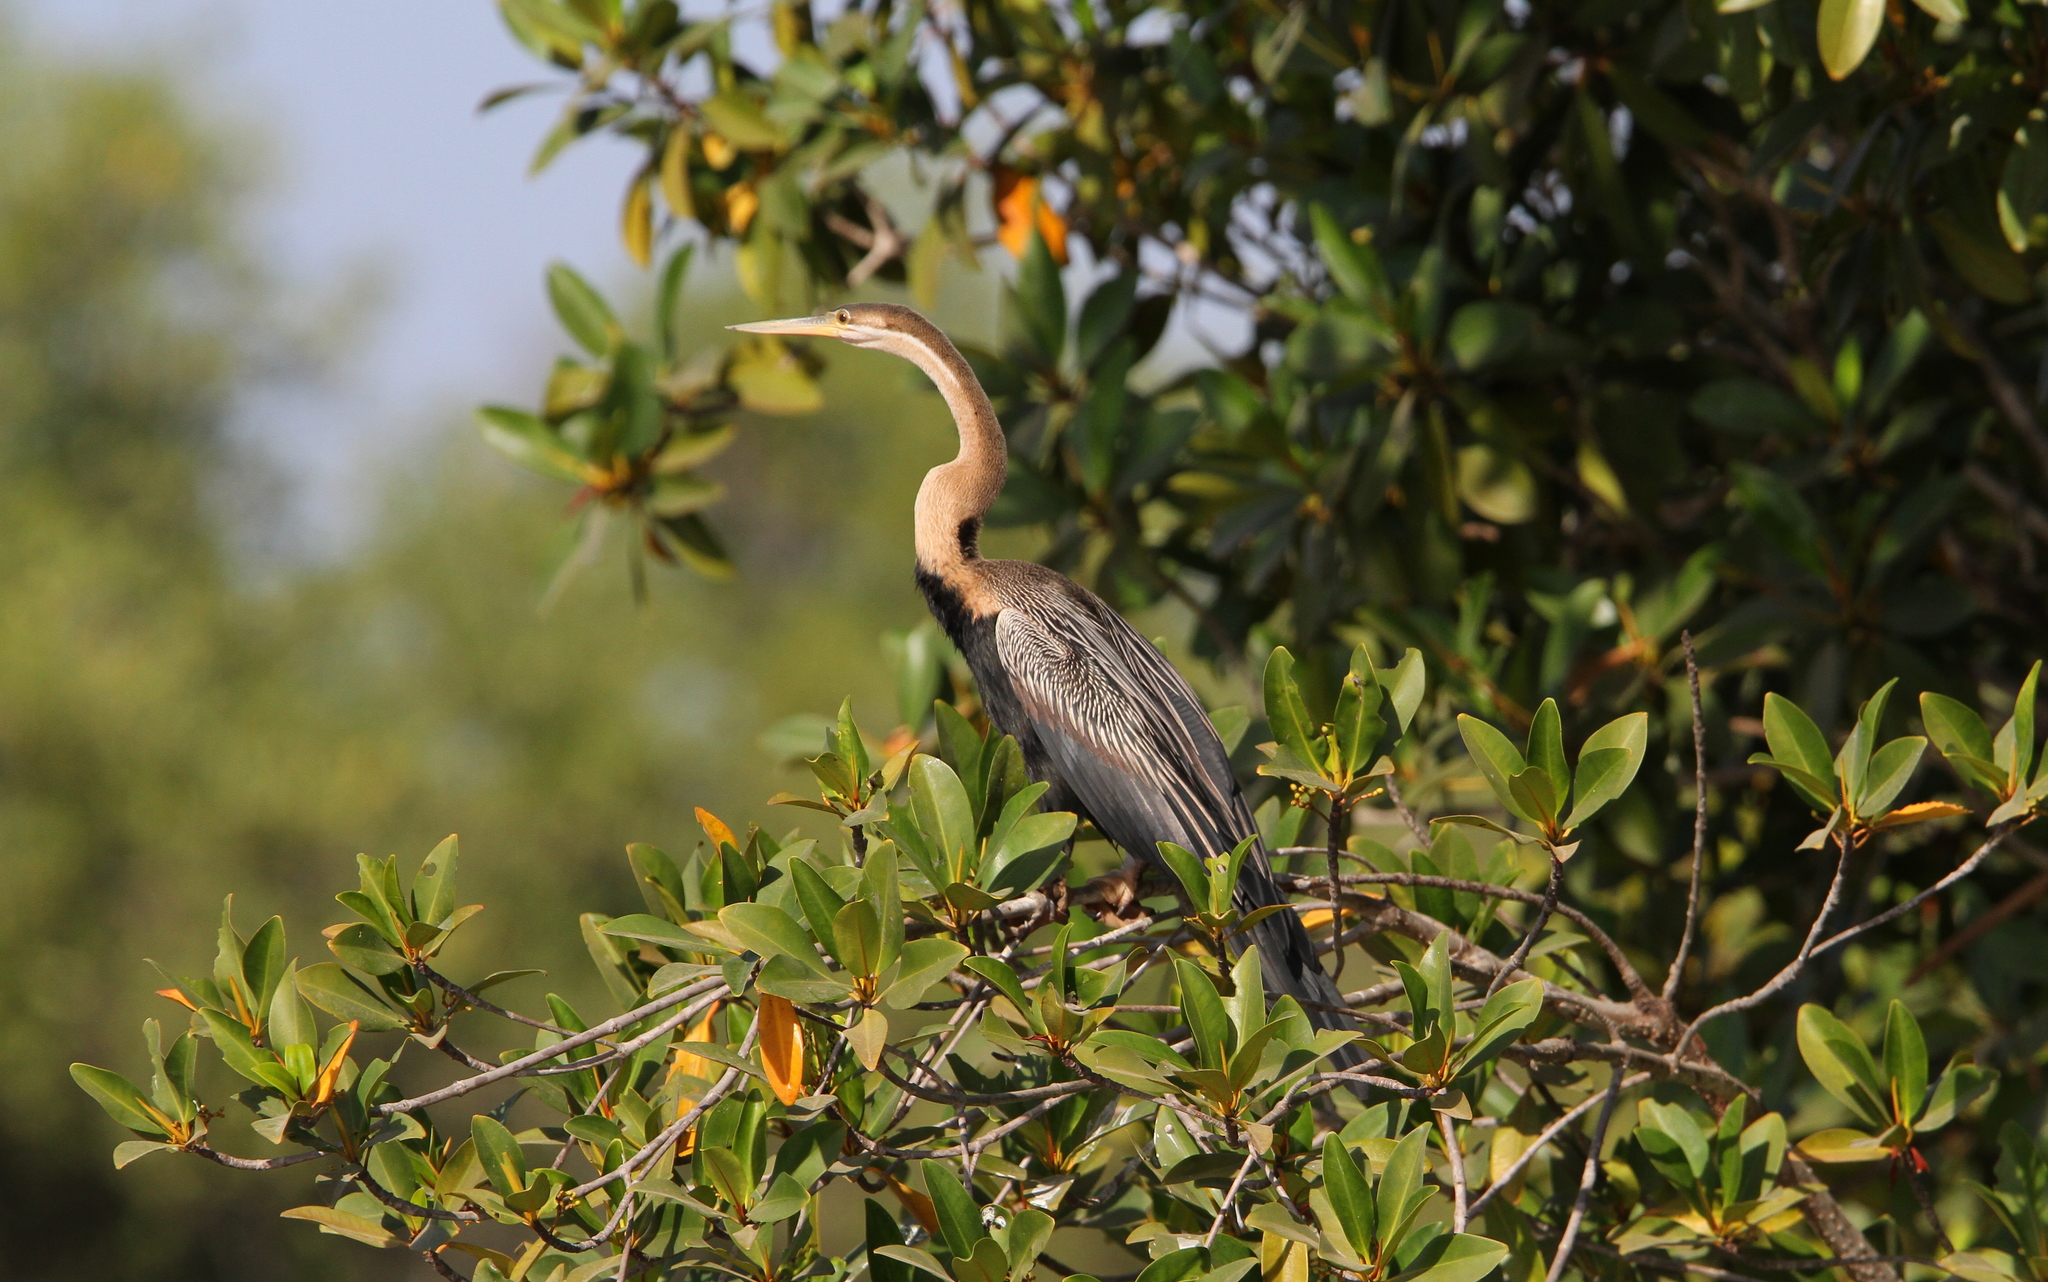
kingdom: Animalia
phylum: Chordata
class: Aves
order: Suliformes
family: Anhingidae
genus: Anhinga
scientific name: Anhinga rufa
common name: African darter
